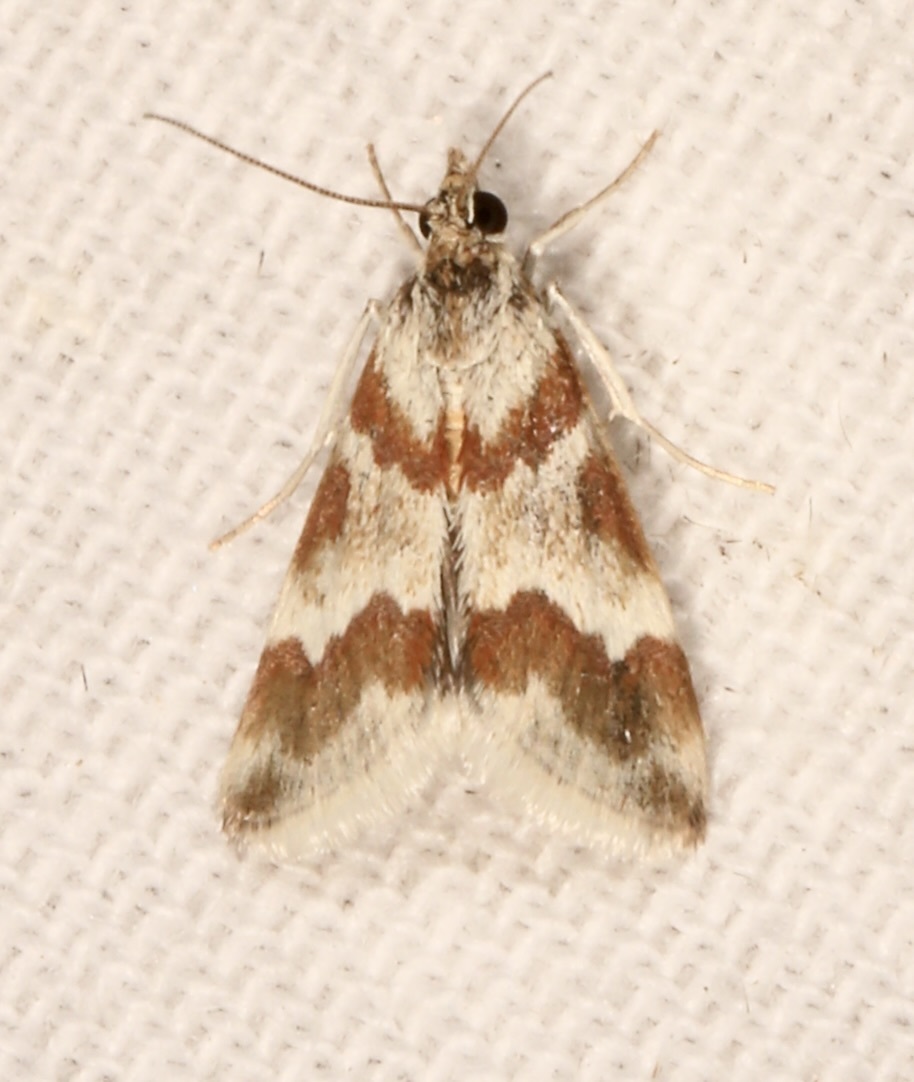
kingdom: Animalia
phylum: Arthropoda
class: Insecta
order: Lepidoptera
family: Crambidae
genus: Noctuelia
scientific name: Noctuelia Mimoschinia rufofascialis
